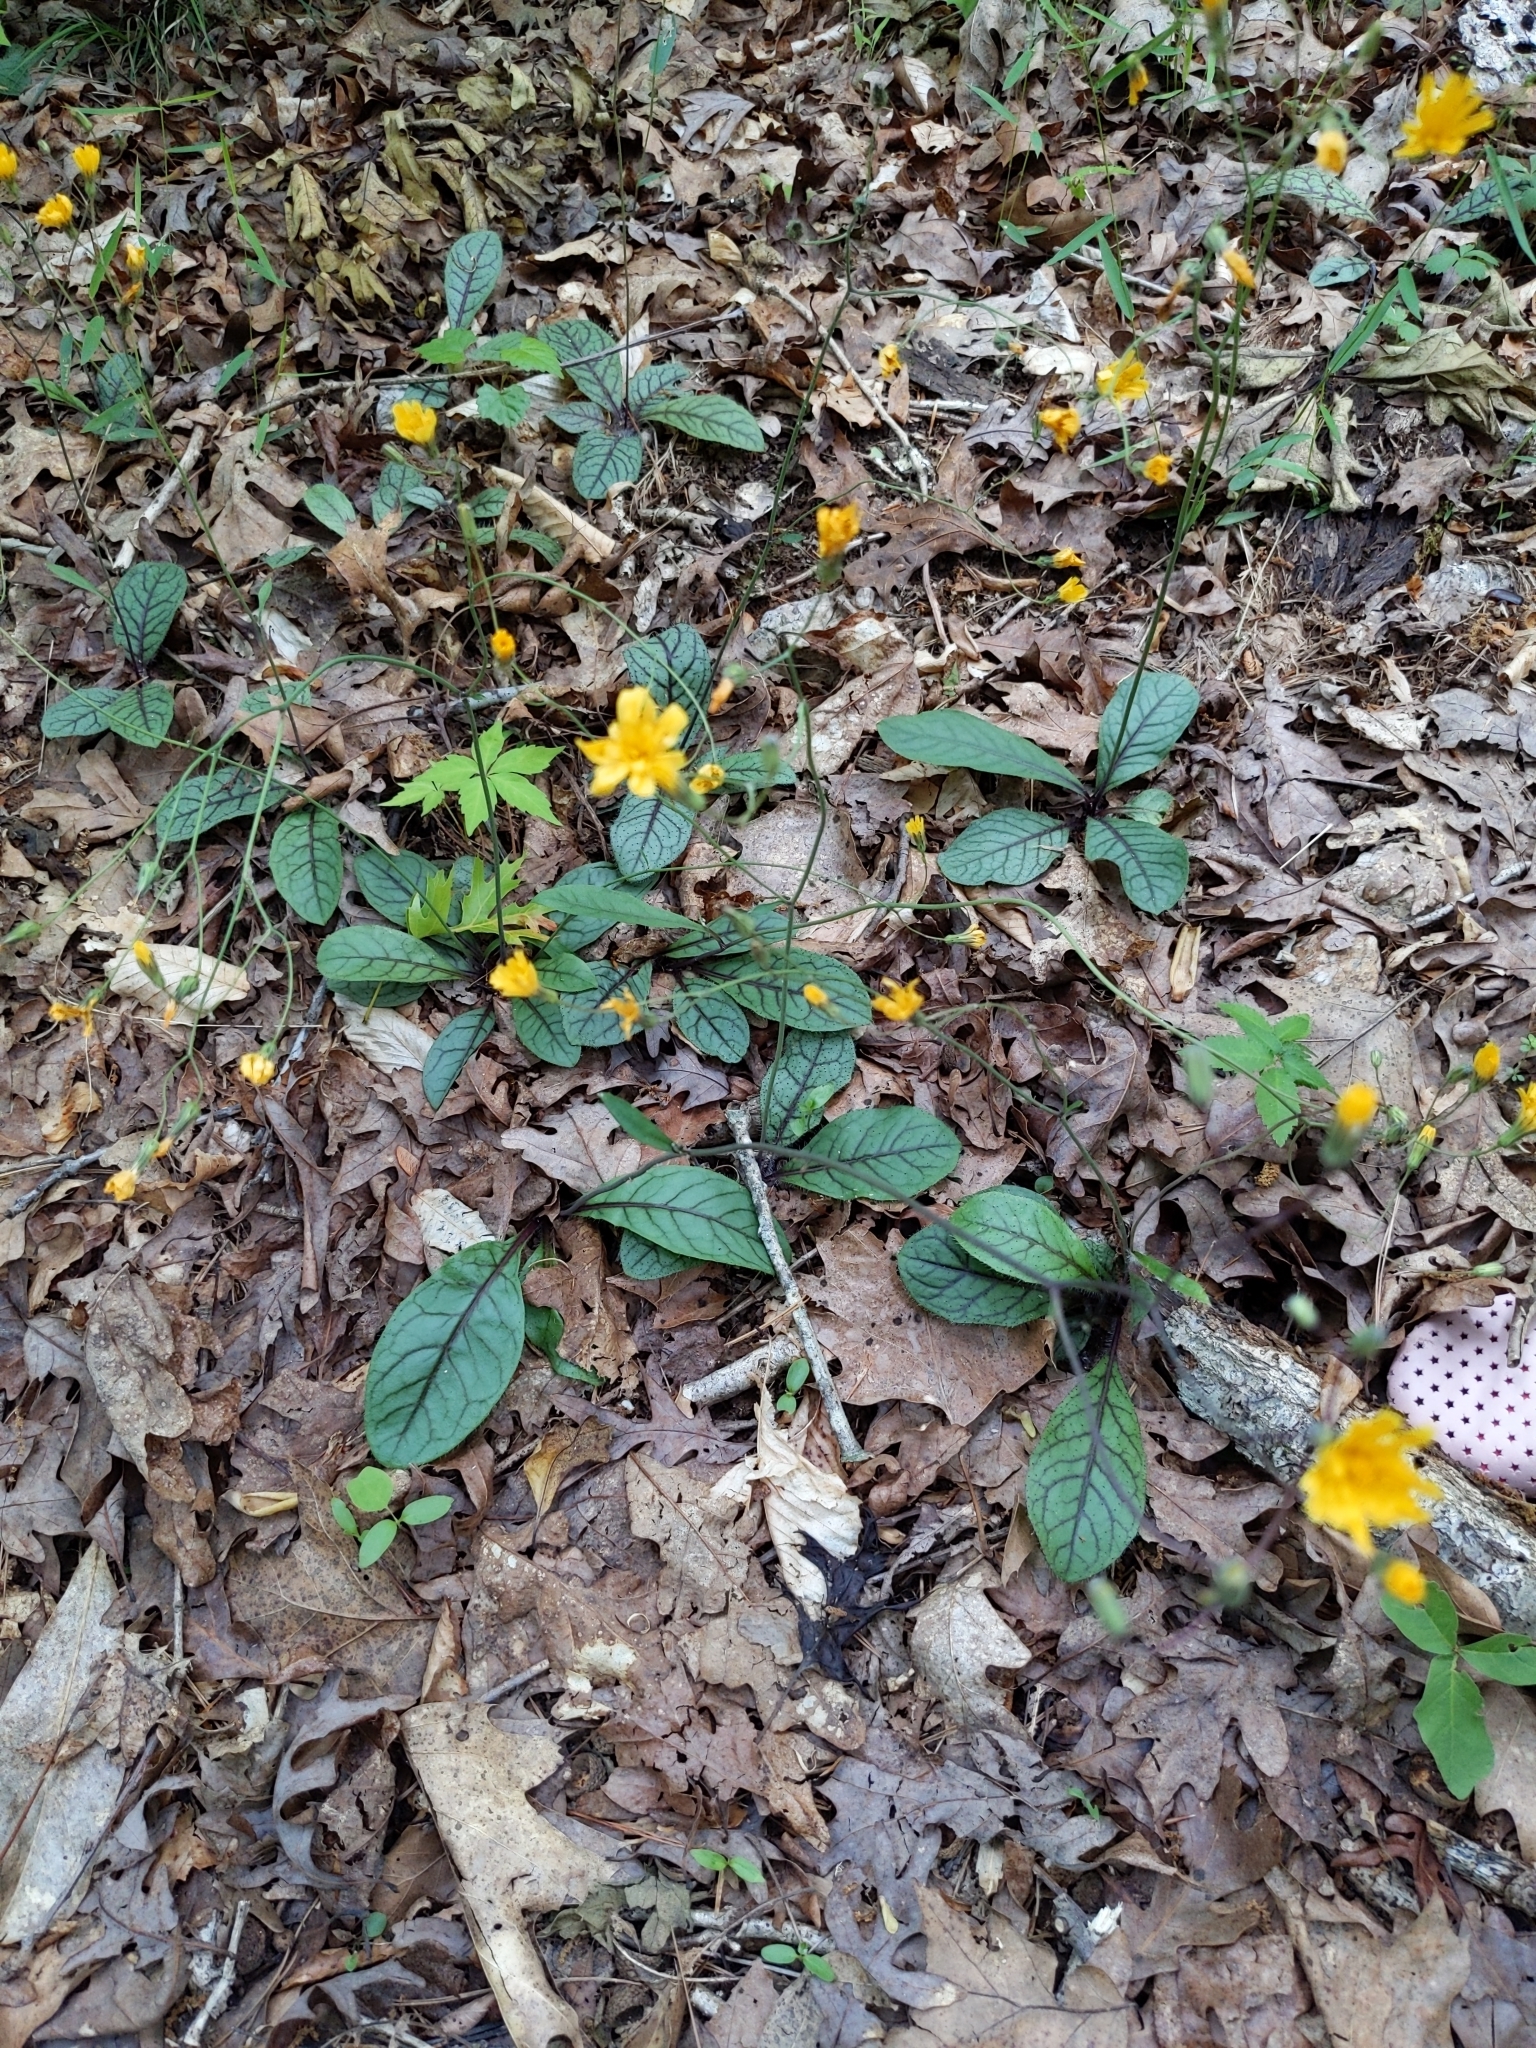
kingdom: Plantae
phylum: Tracheophyta
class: Magnoliopsida
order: Asterales
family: Asteraceae
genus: Hieracium
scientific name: Hieracium venosum
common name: Rattlesnake hawkweed
